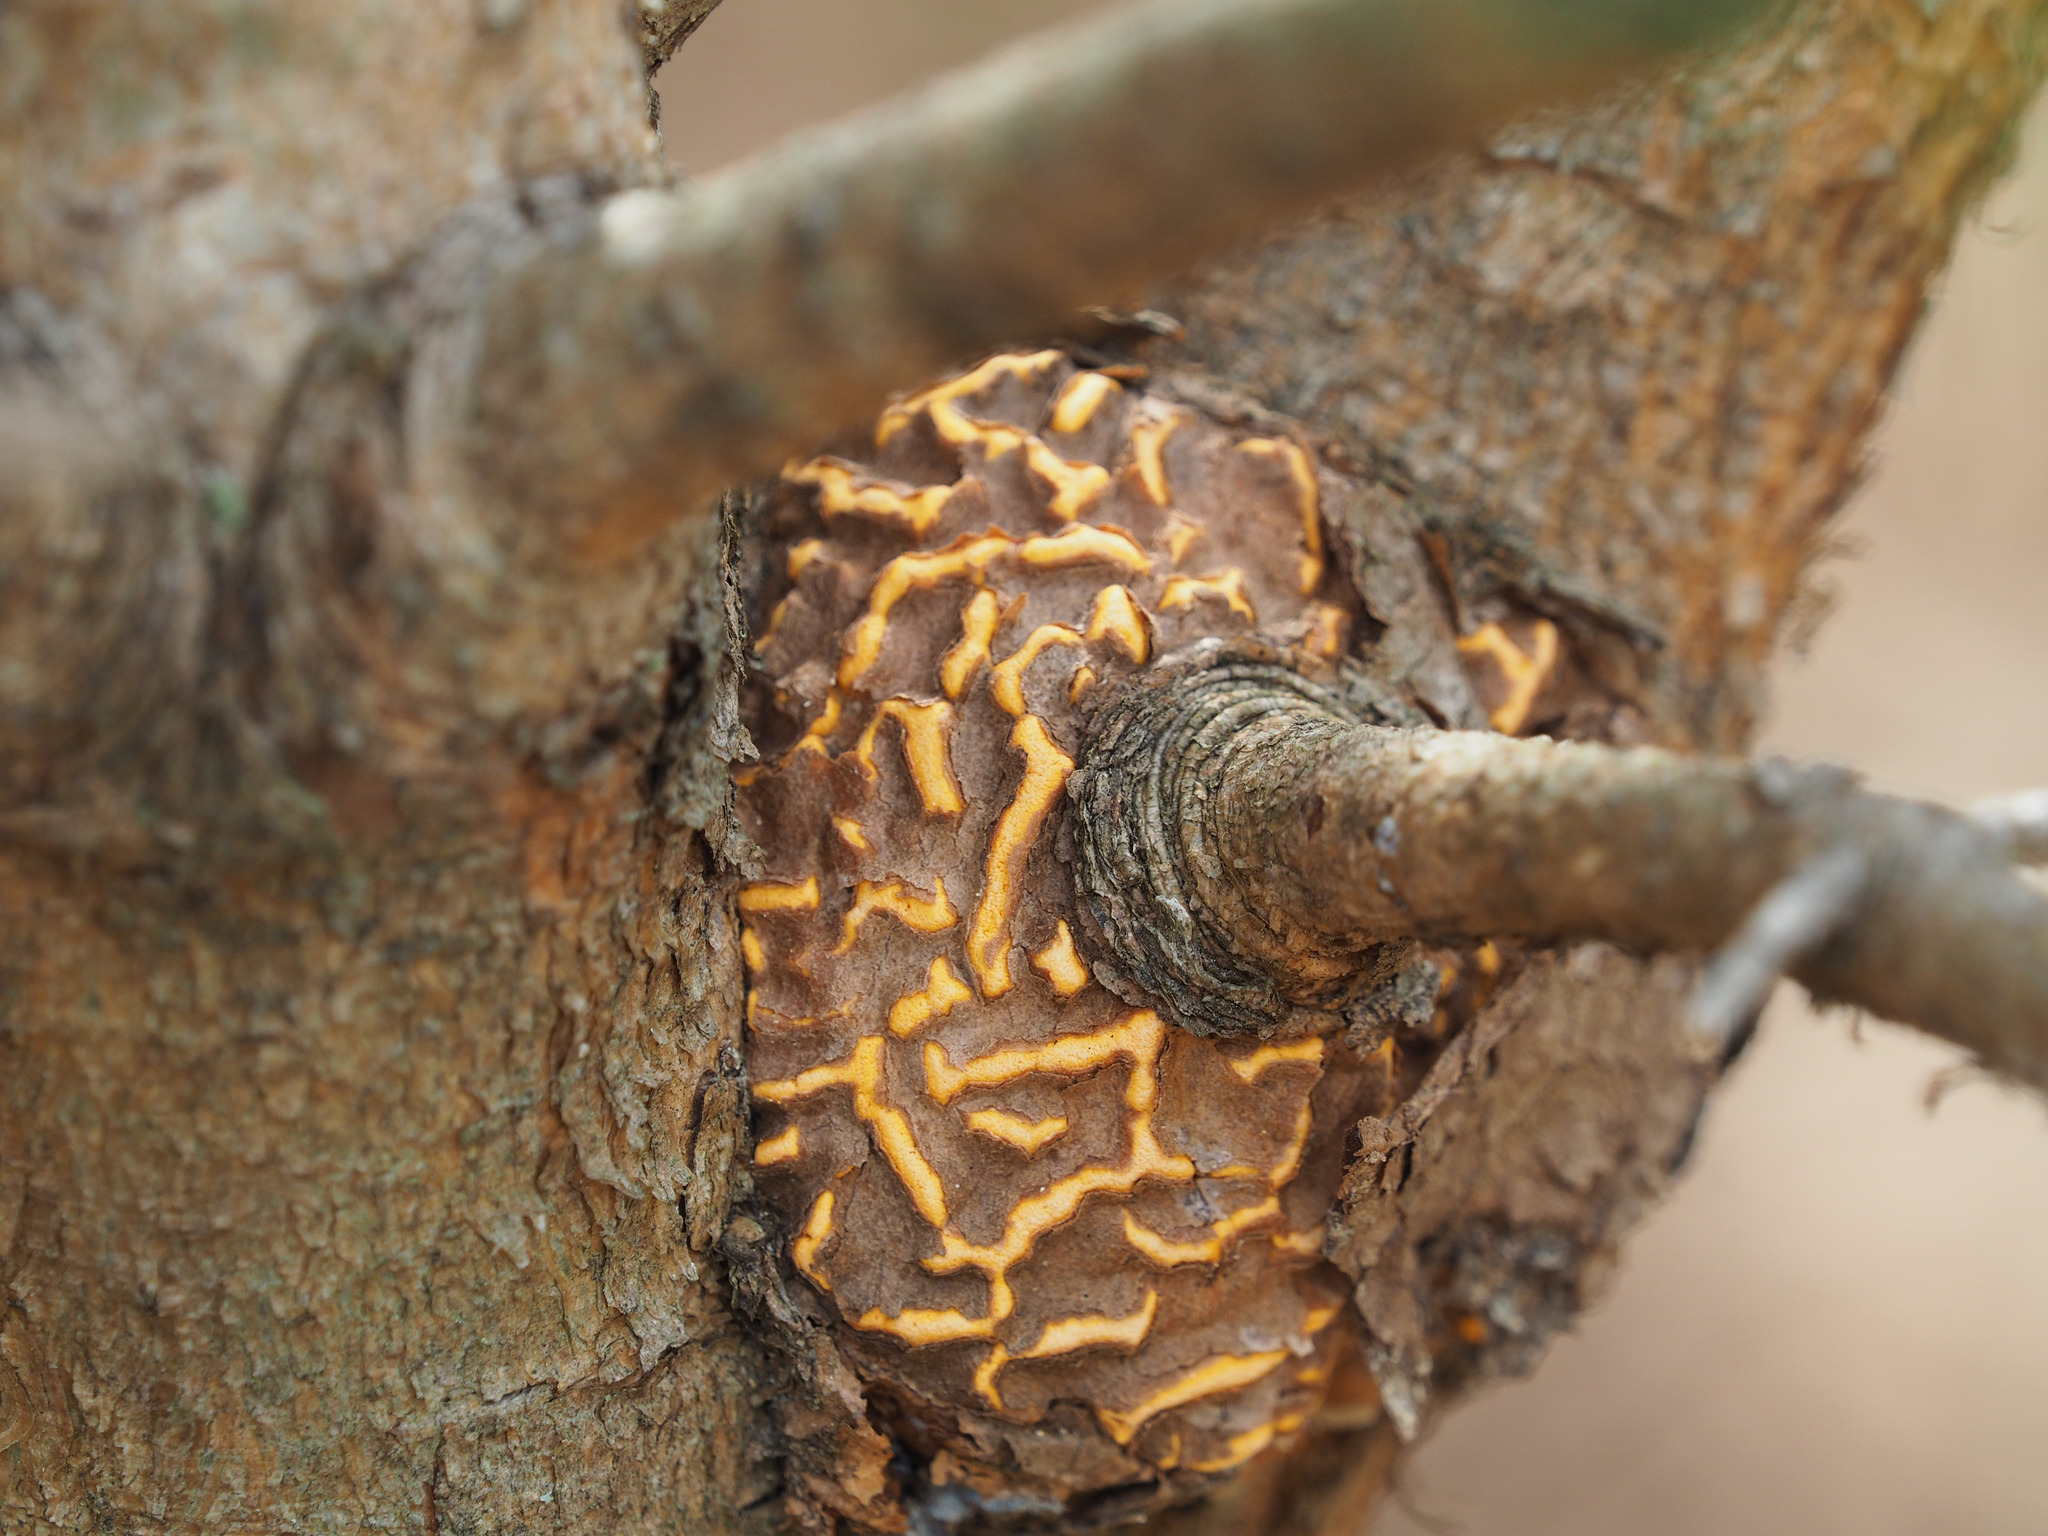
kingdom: Fungi
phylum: Basidiomycota
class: Pucciniomycetes
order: Pucciniales
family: Cronartiaceae
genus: Cronartium
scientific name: Cronartium quercuum
